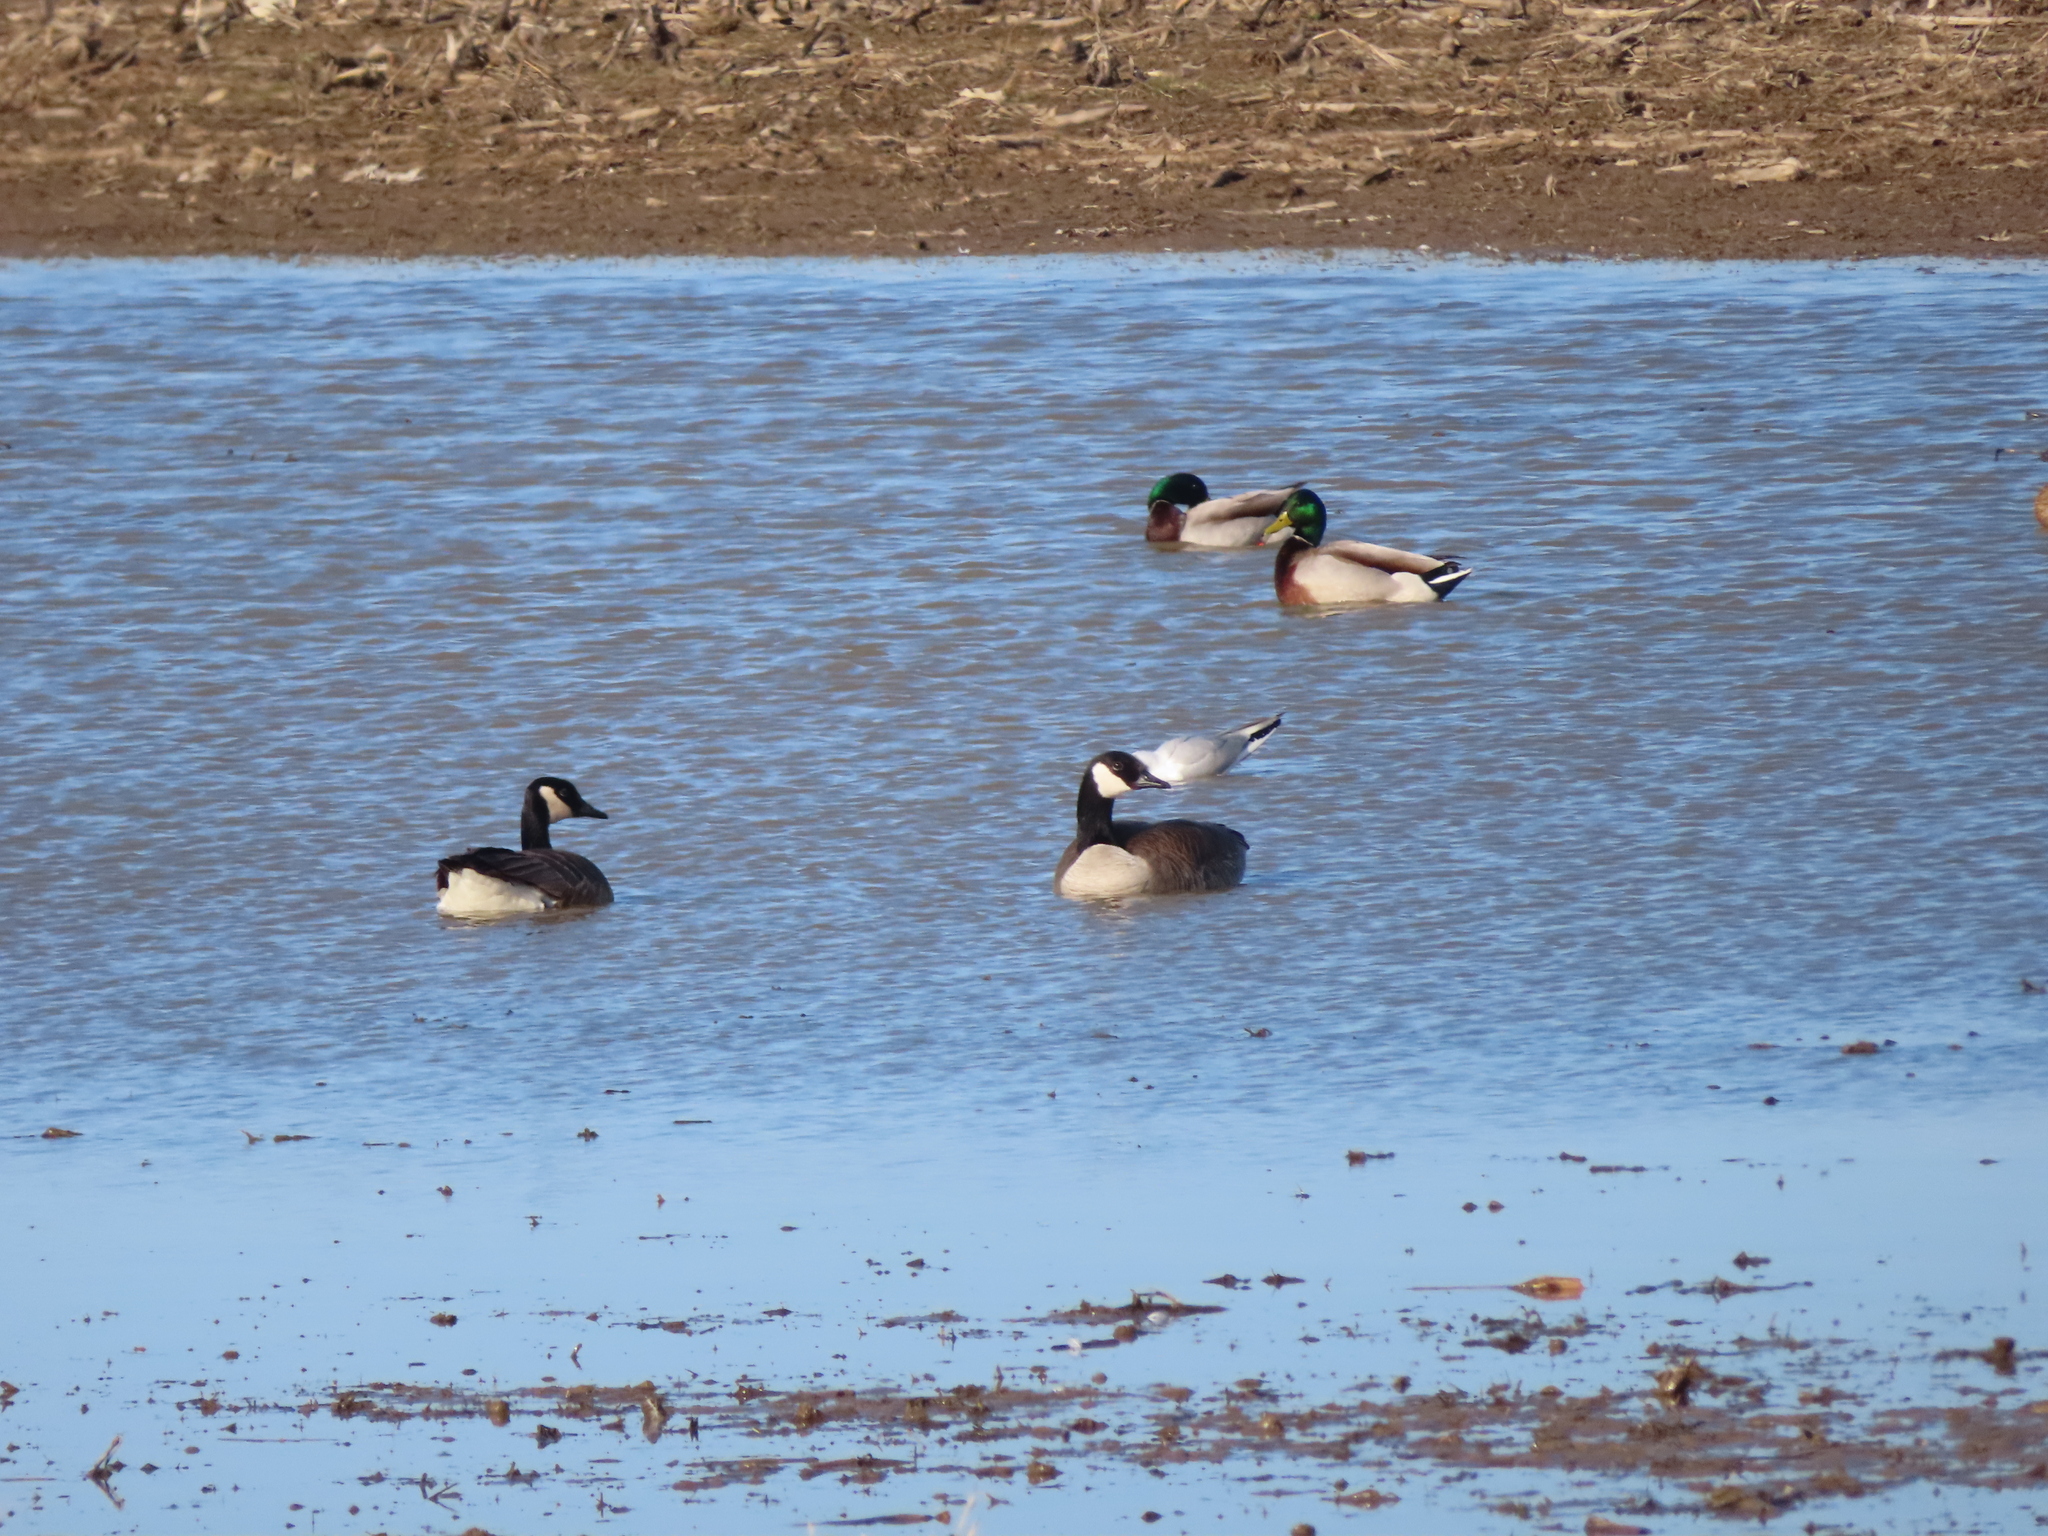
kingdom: Animalia
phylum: Chordata
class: Aves
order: Anseriformes
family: Anatidae
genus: Branta
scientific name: Branta canadensis
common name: Canada goose
